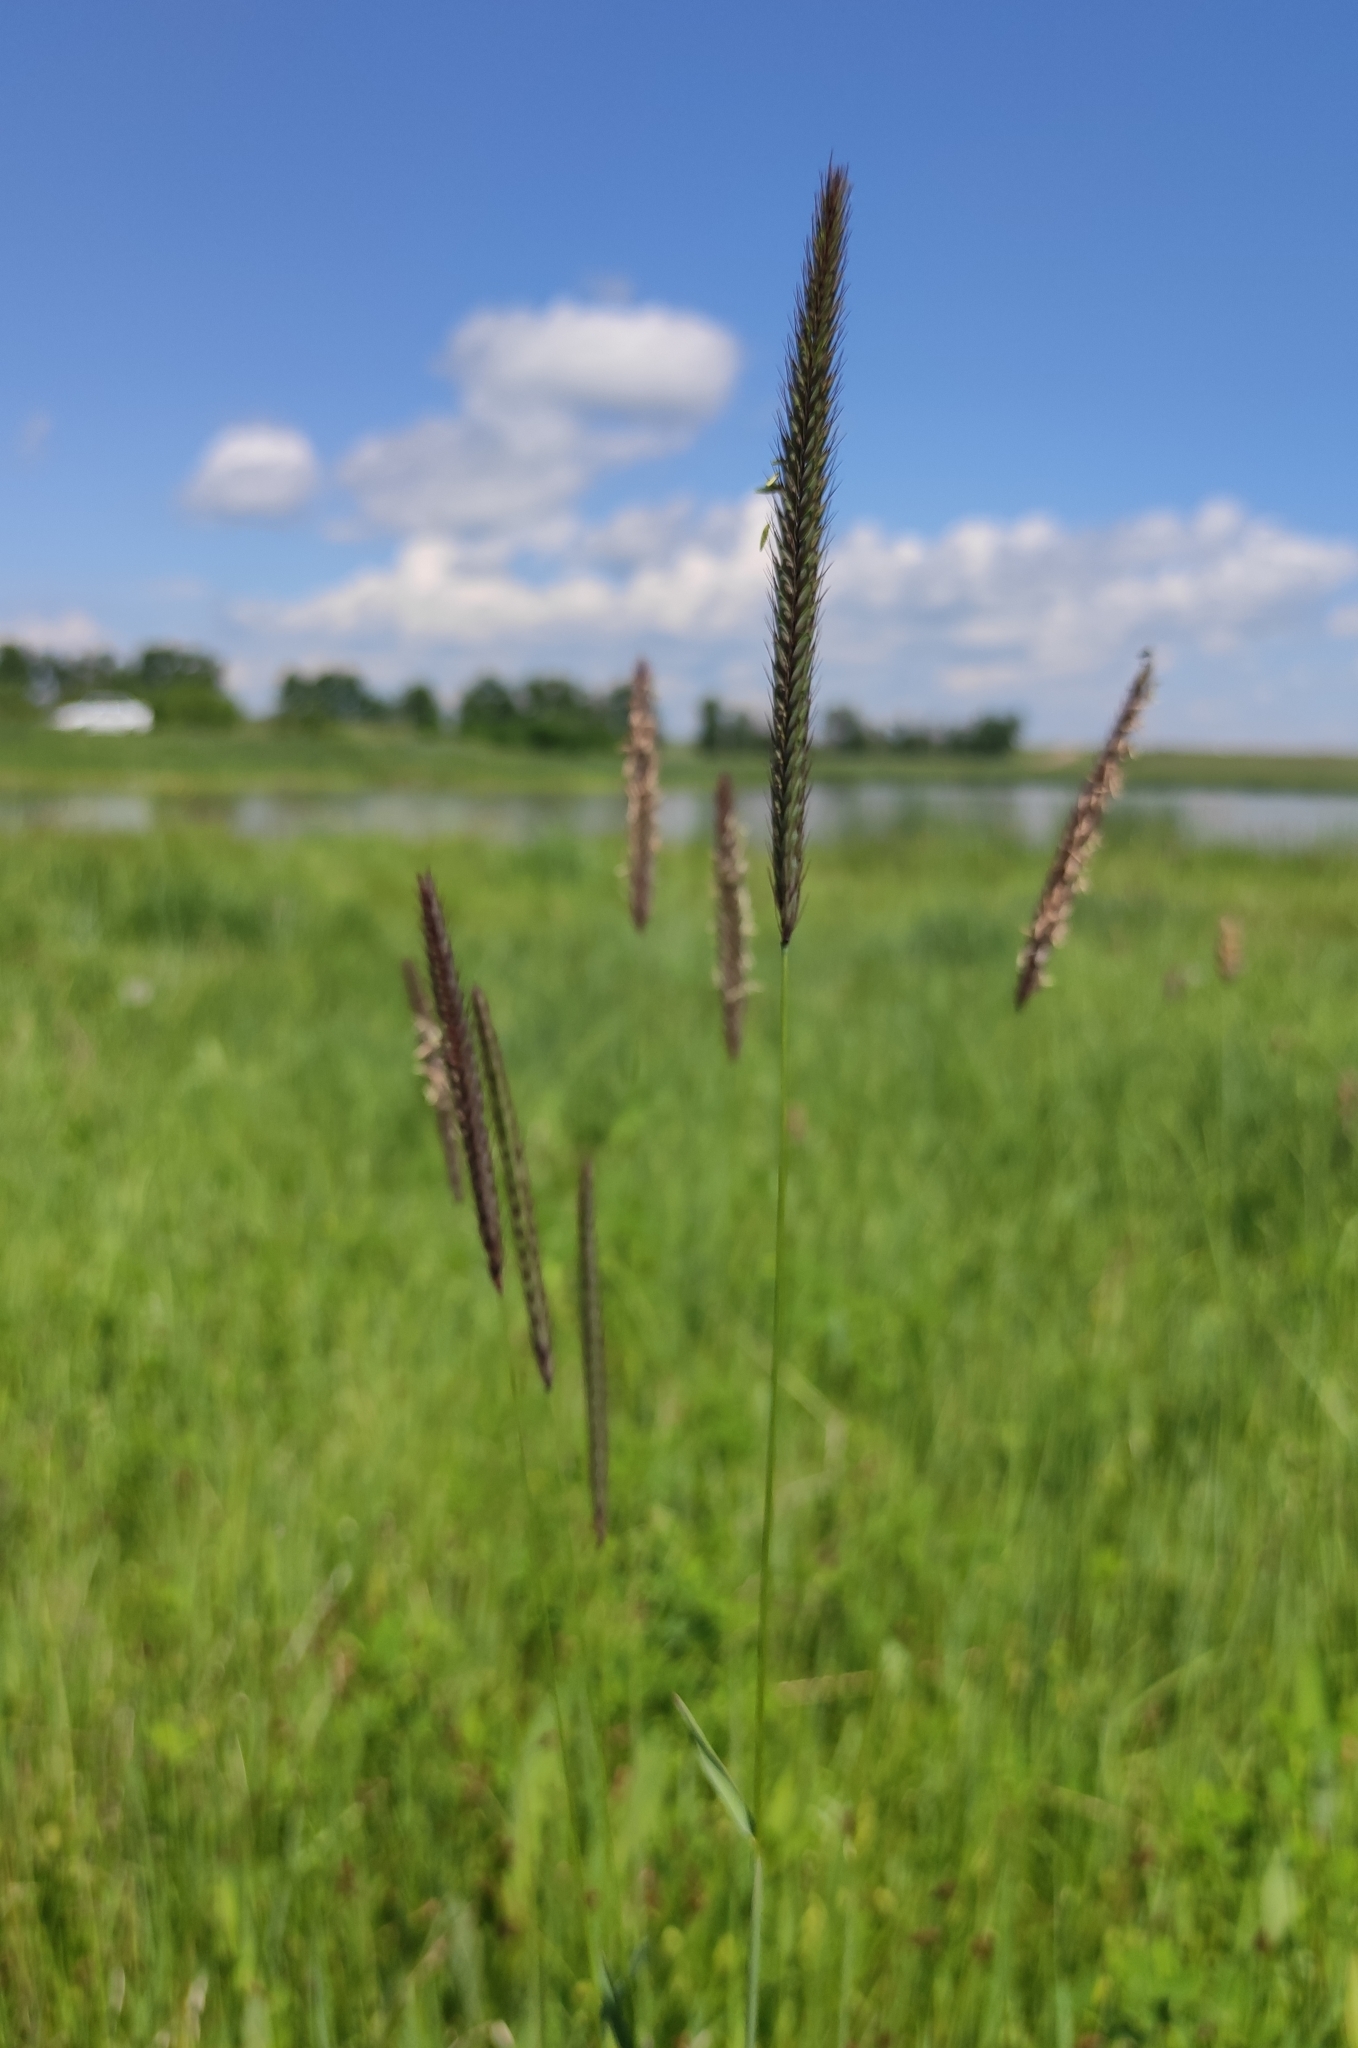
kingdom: Plantae
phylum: Tracheophyta
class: Liliopsida
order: Poales
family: Poaceae
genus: Hordeum
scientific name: Hordeum brevisubulatum
